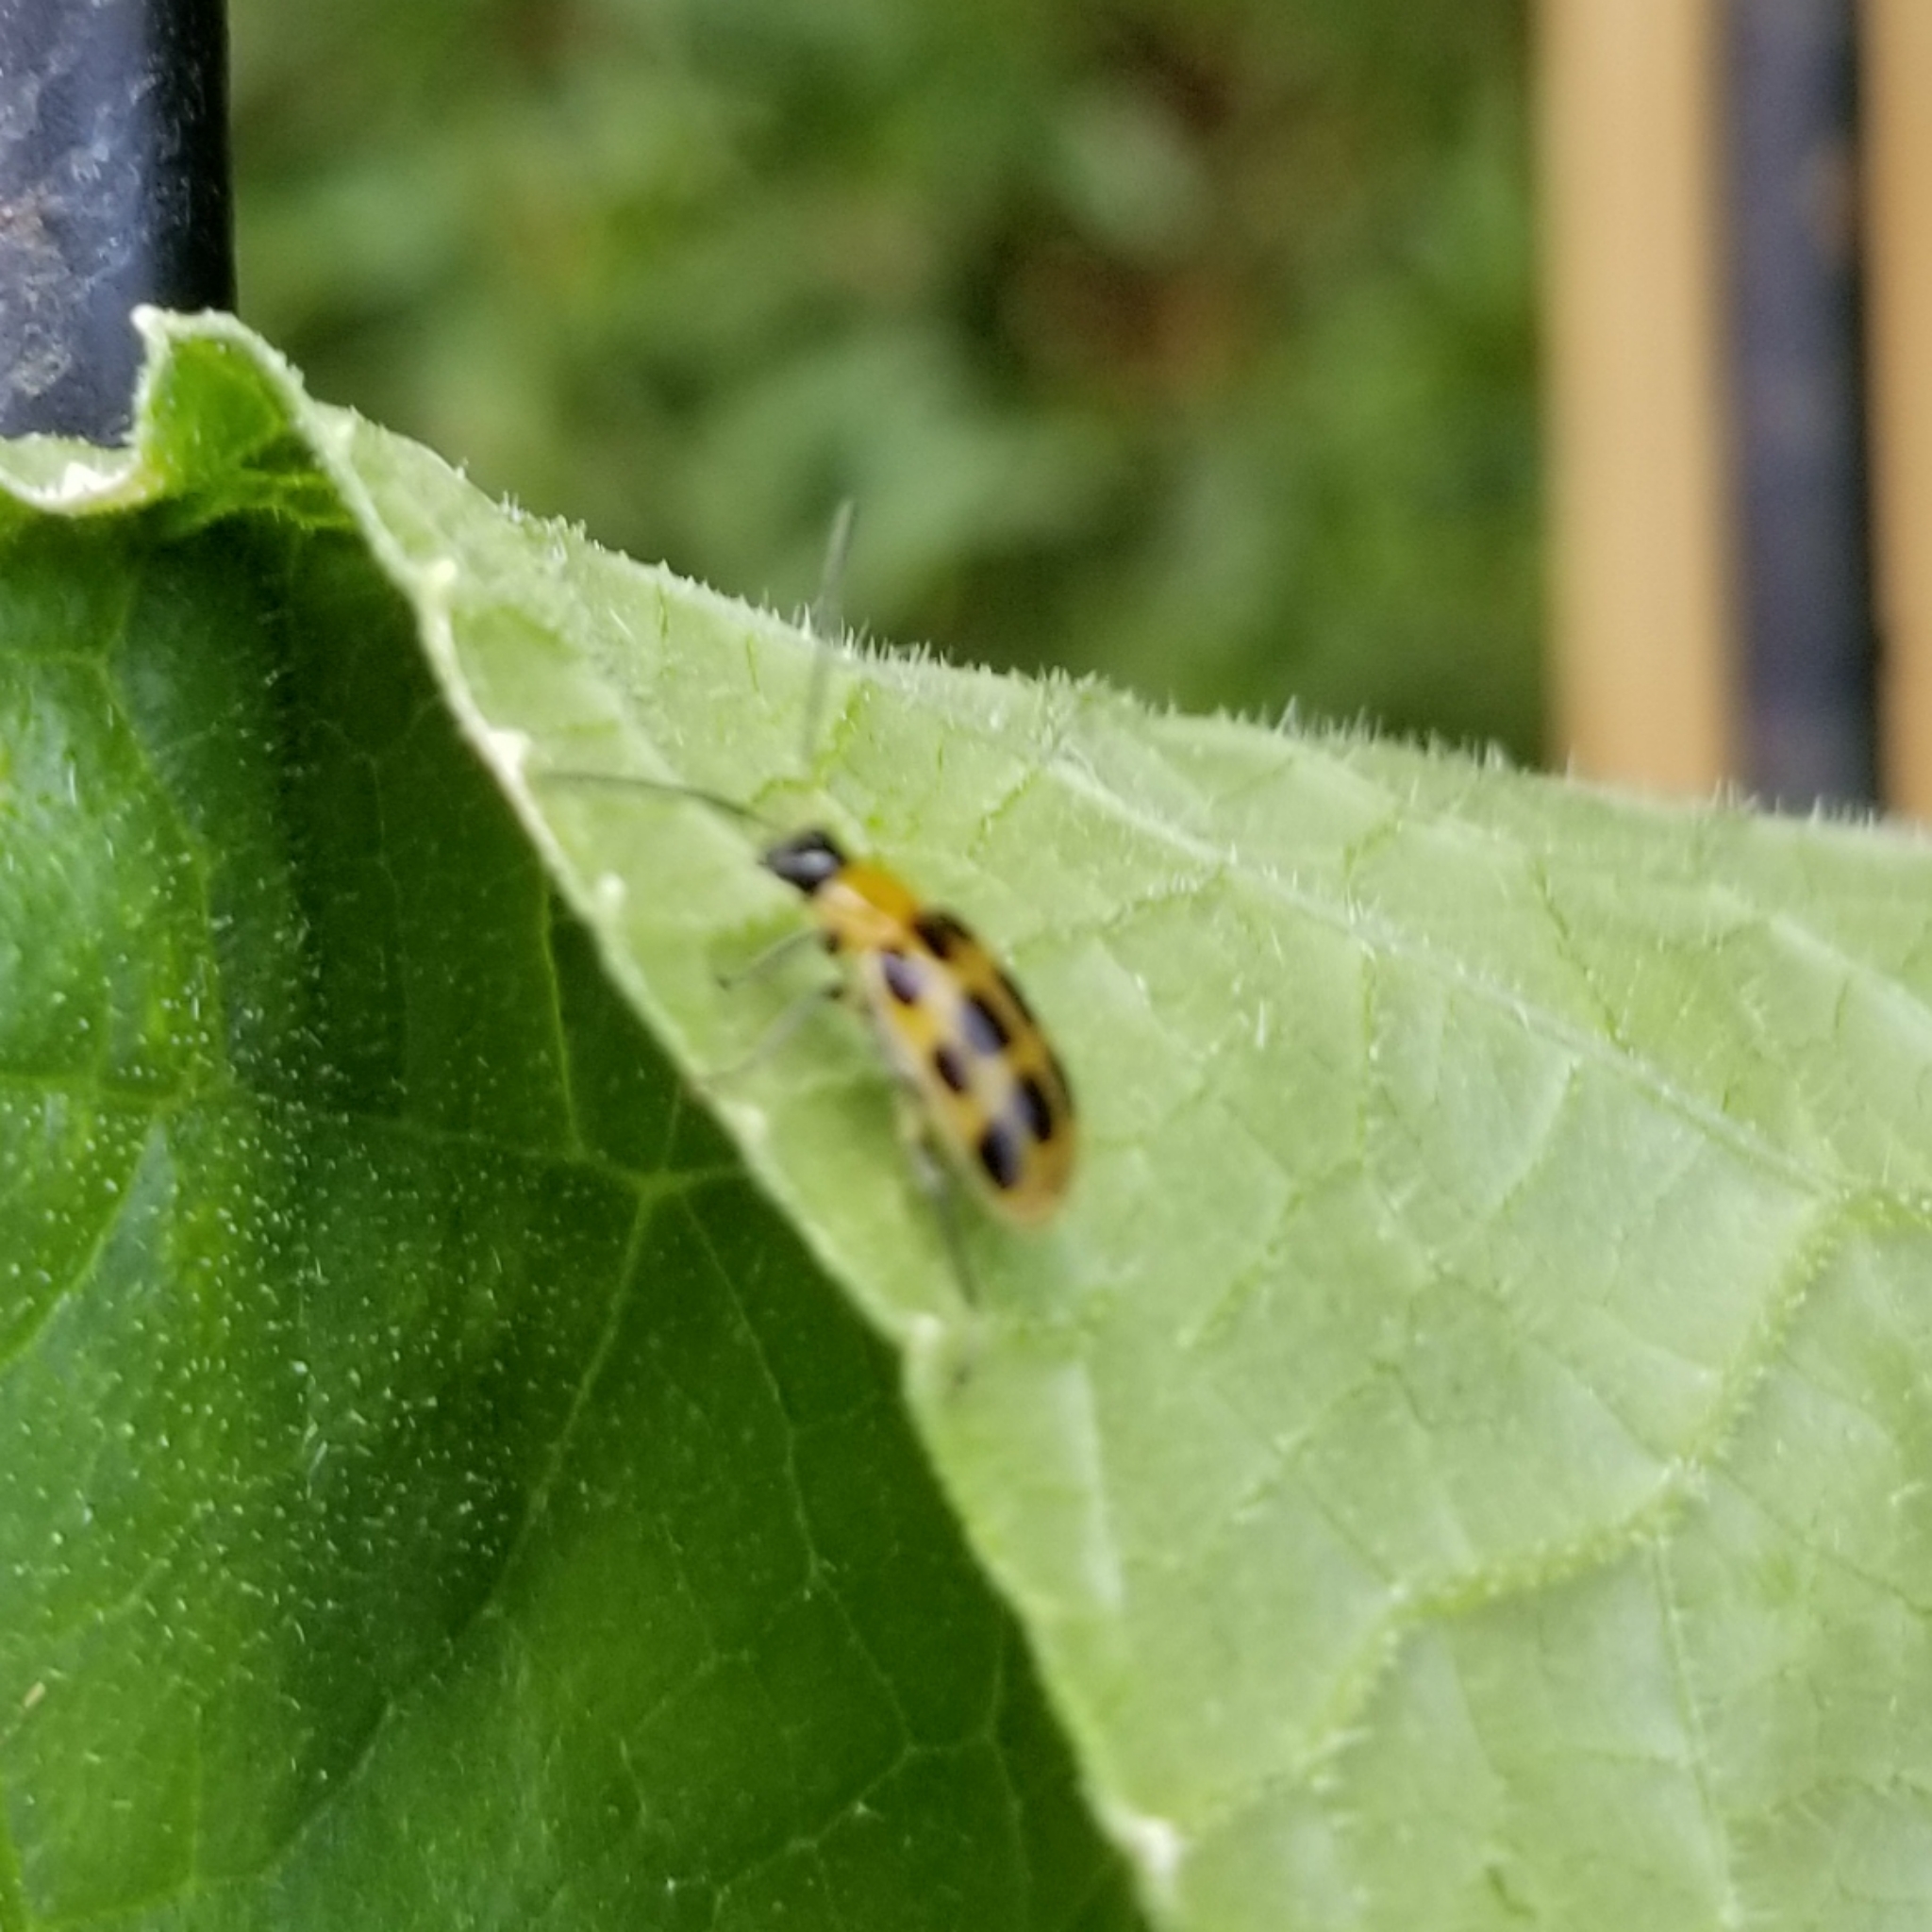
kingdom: Animalia
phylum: Arthropoda
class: Insecta
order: Coleoptera
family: Chrysomelidae
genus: Diabrotica
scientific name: Diabrotica undecimpunctata
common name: Spotted cucumber beetle
